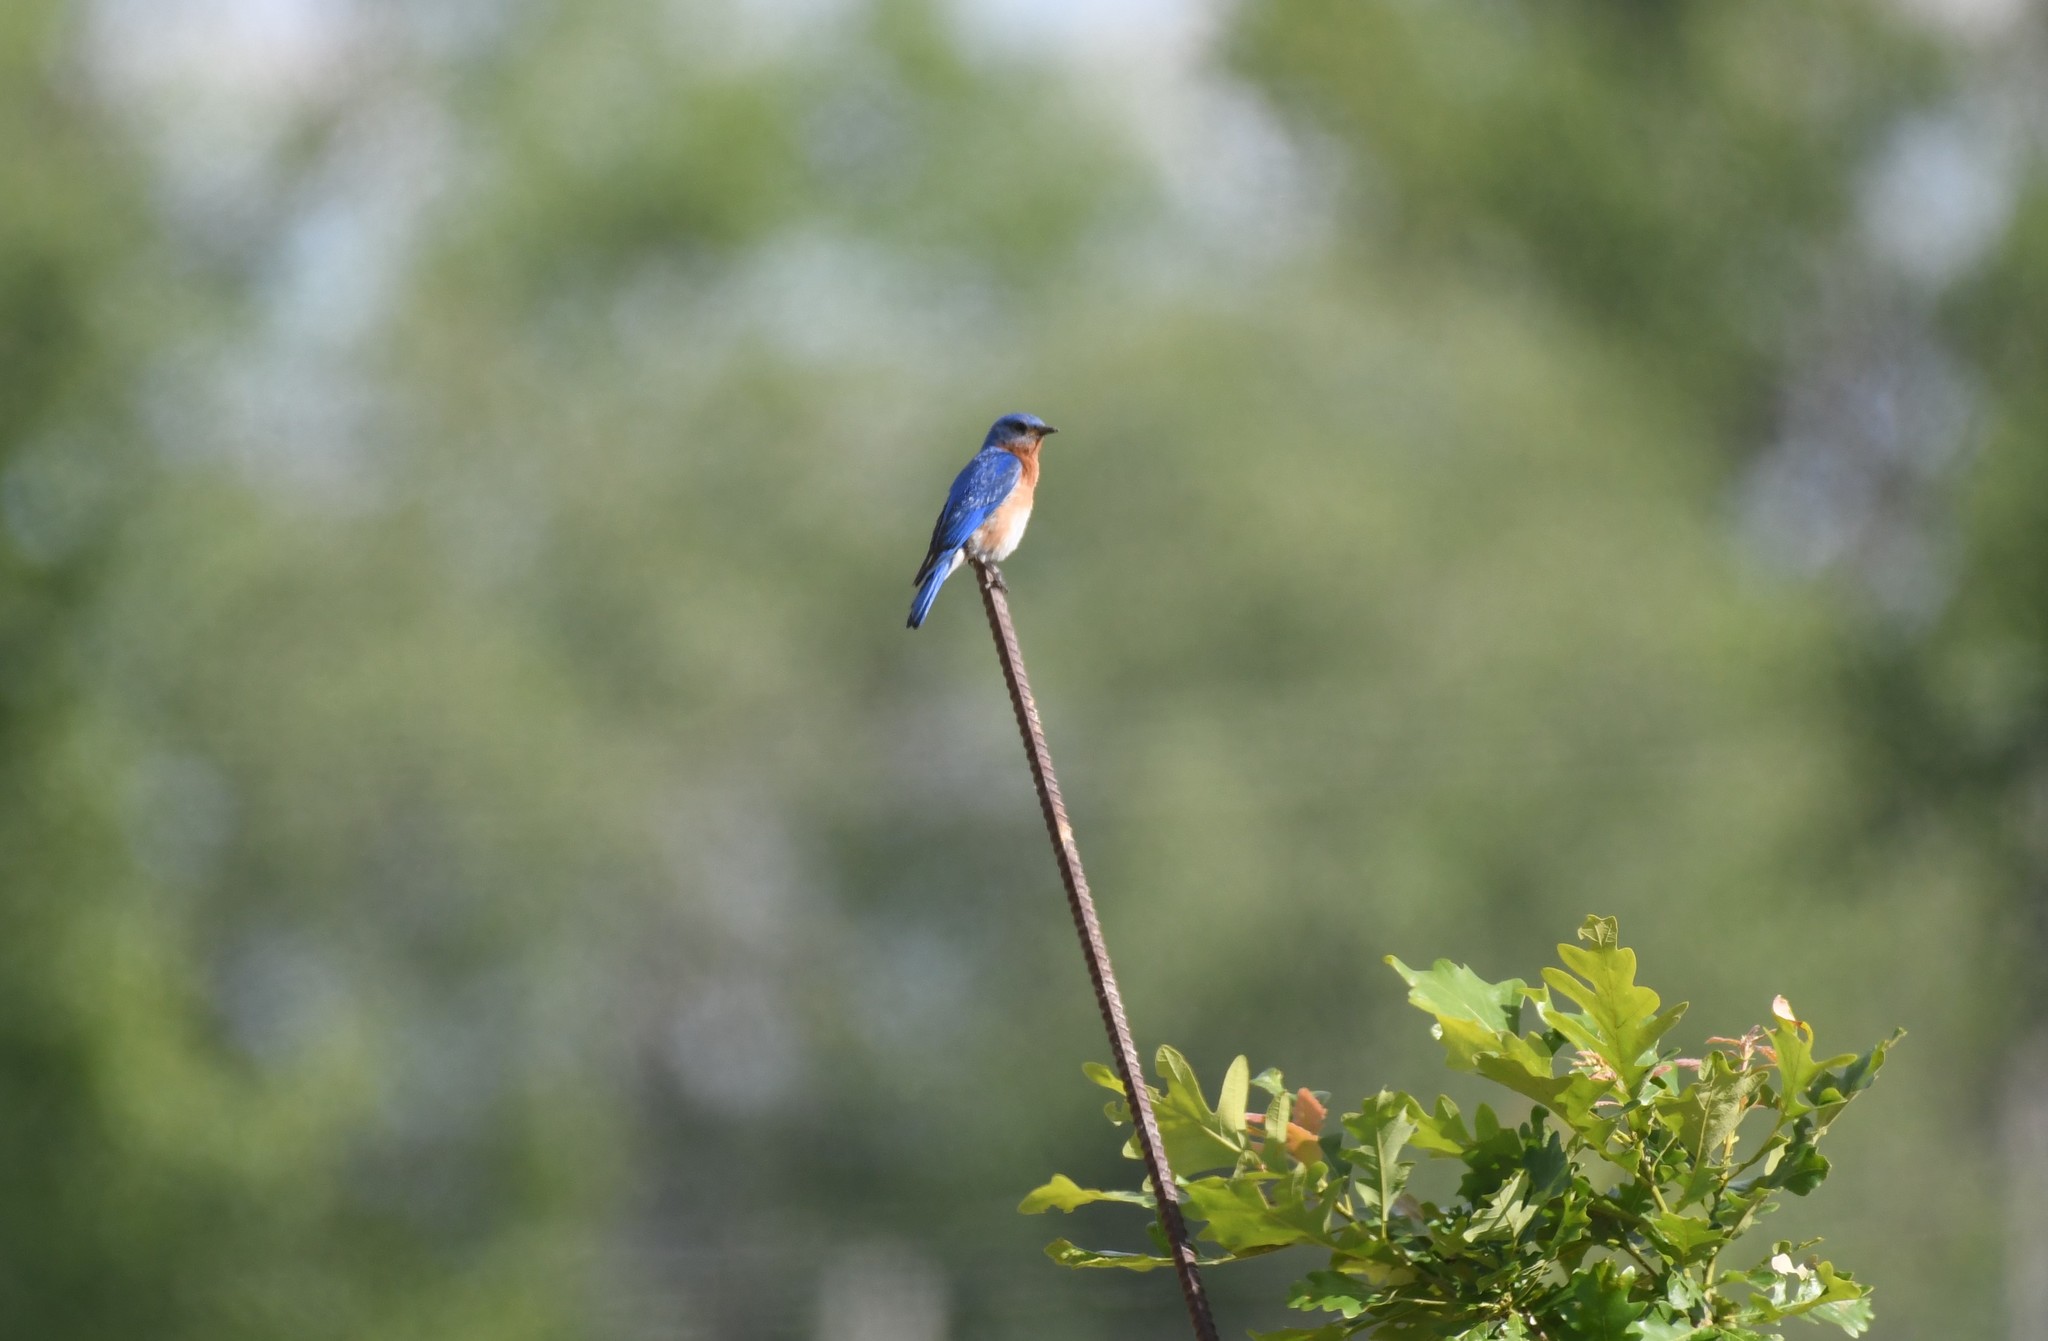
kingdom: Animalia
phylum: Chordata
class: Aves
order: Passeriformes
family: Turdidae
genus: Sialia
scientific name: Sialia sialis
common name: Eastern bluebird
